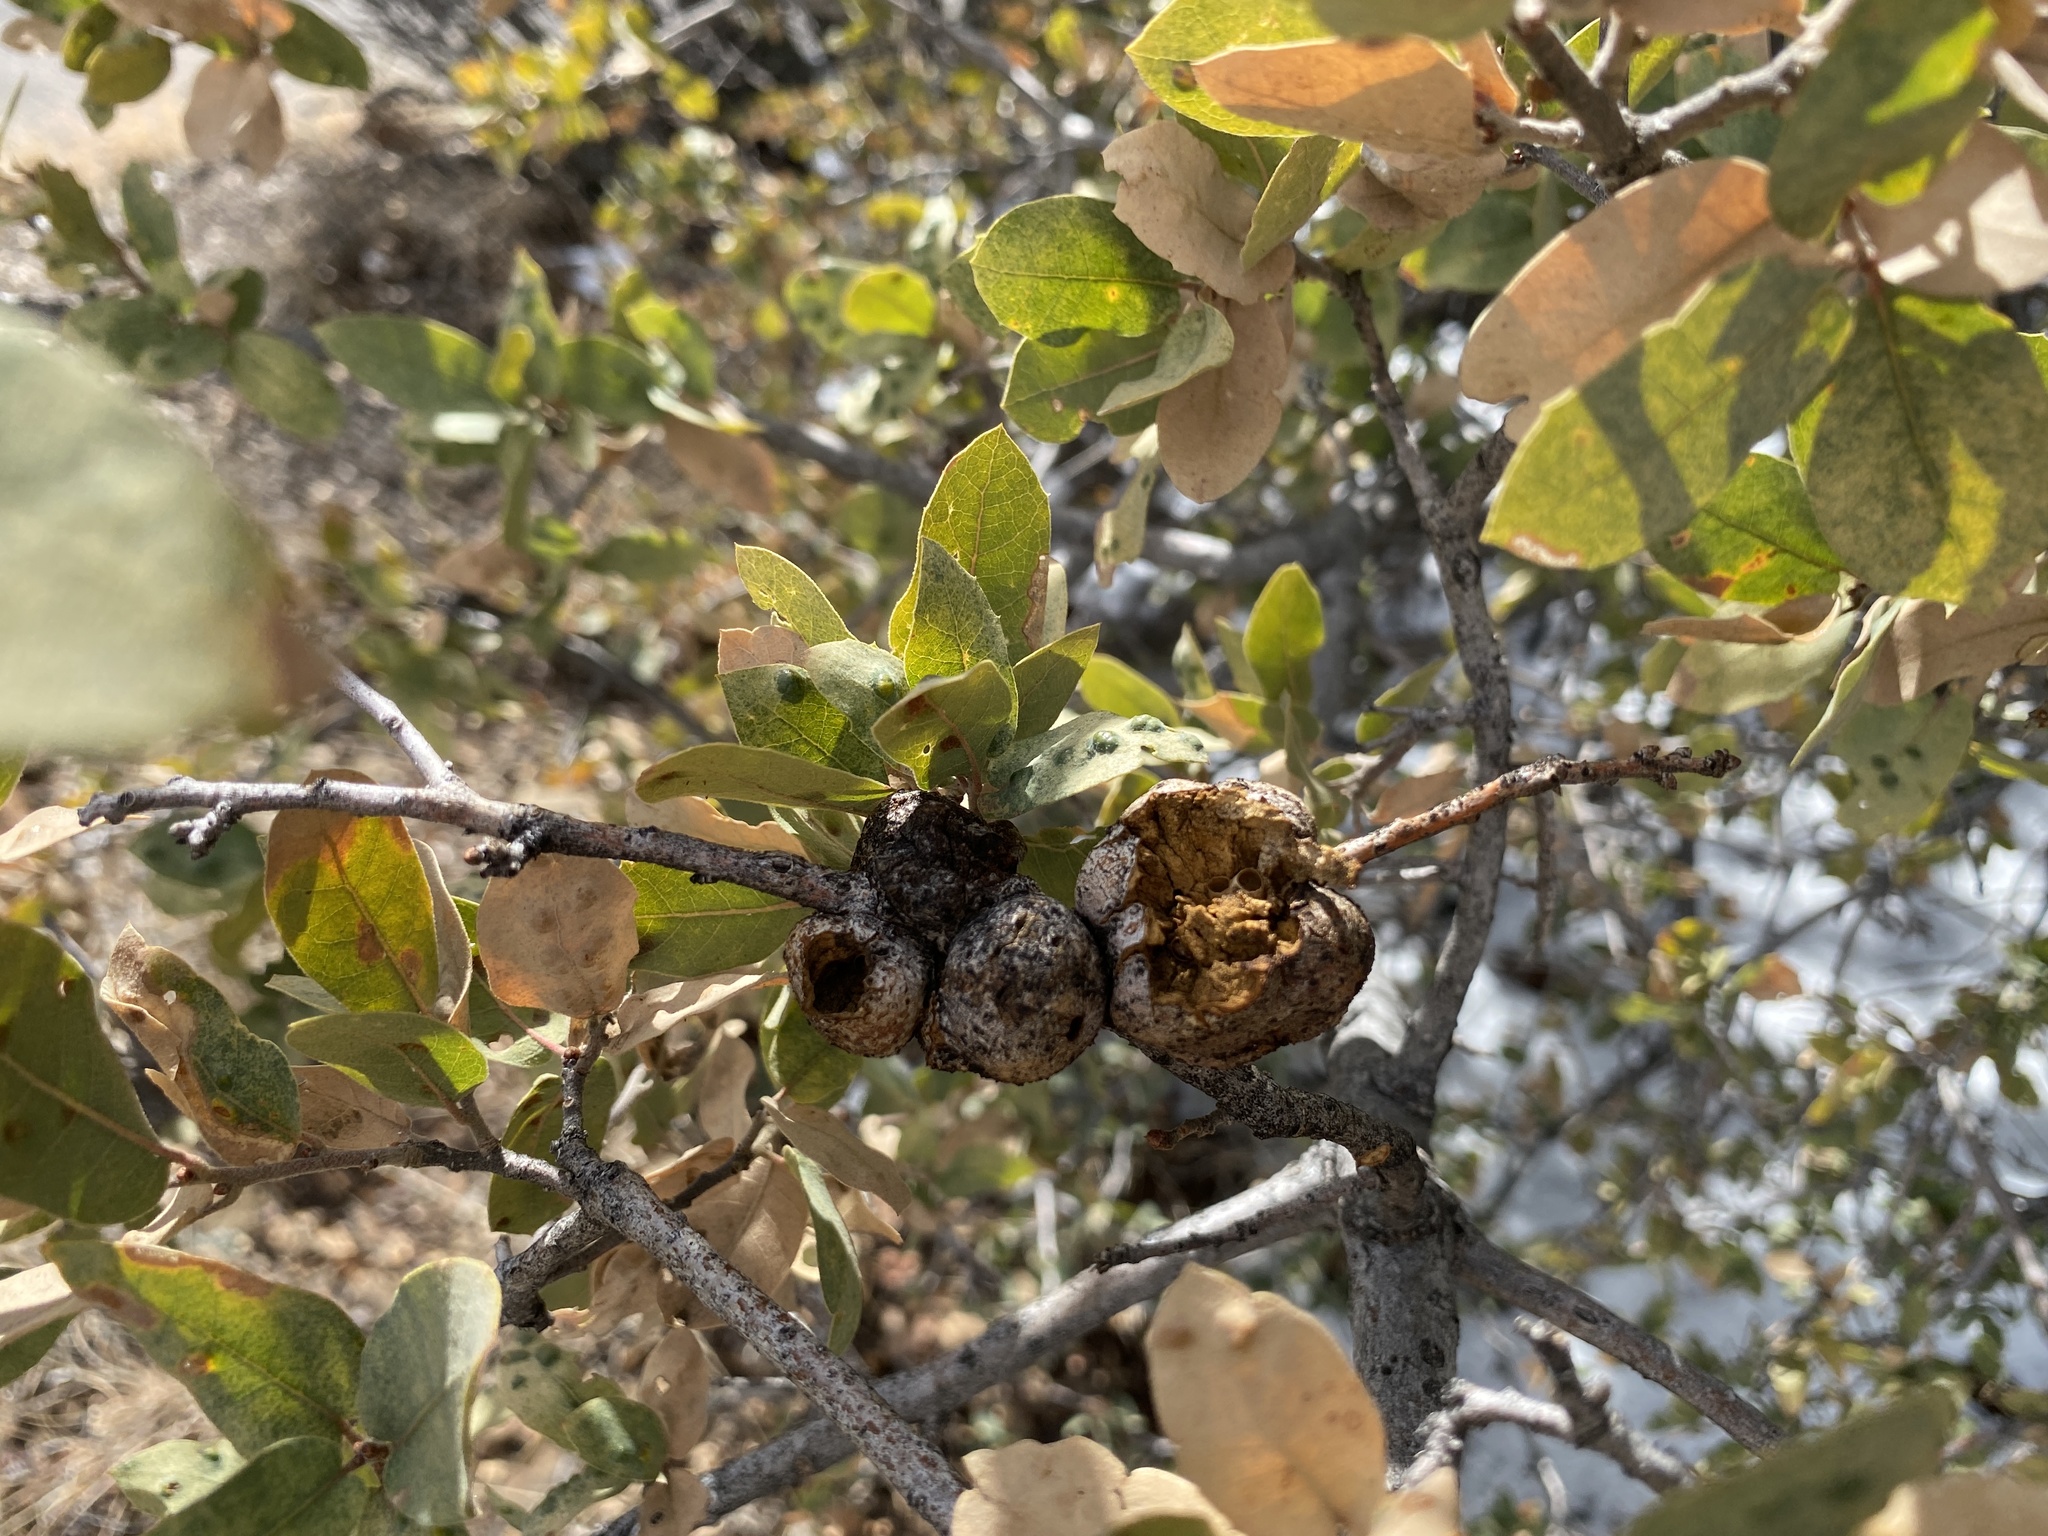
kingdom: Animalia
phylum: Arthropoda
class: Insecta
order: Hymenoptera
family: Cynipidae
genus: Kokkocynips
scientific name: Kokkocynips coxii
